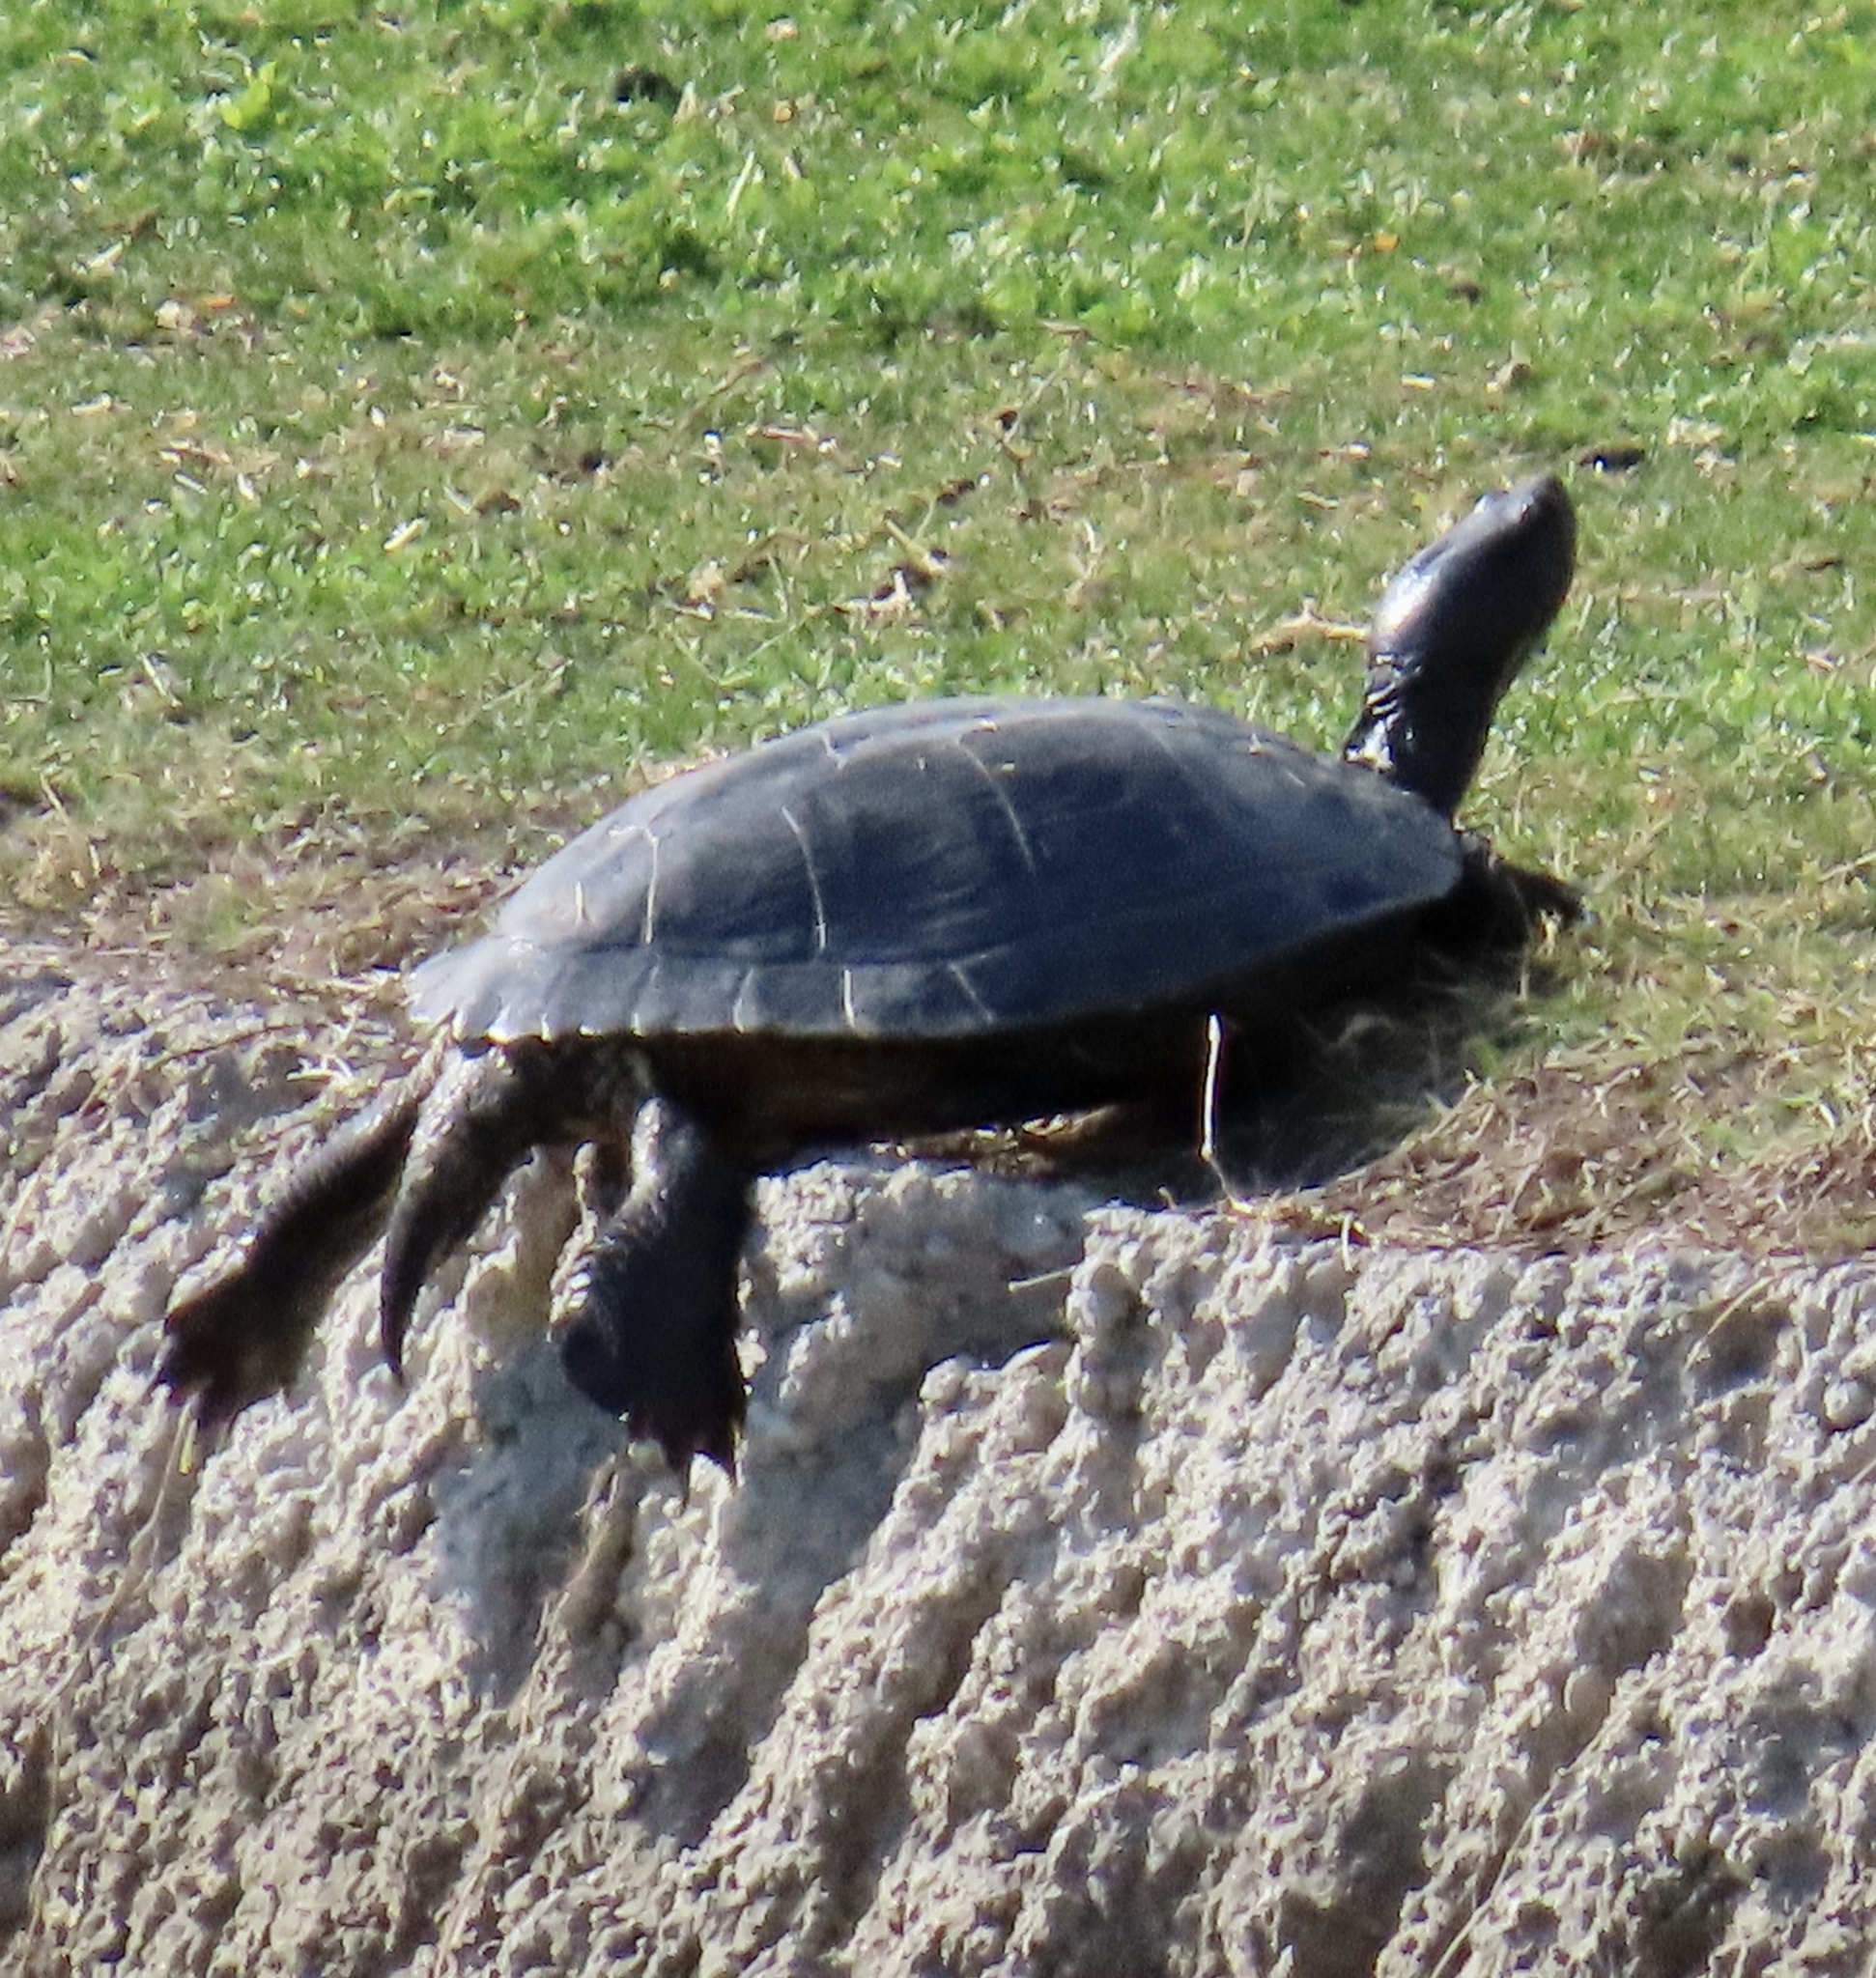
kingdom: Animalia
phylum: Chordata
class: Testudines
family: Emydidae
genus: Trachemys
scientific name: Trachemys scripta
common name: Slider
